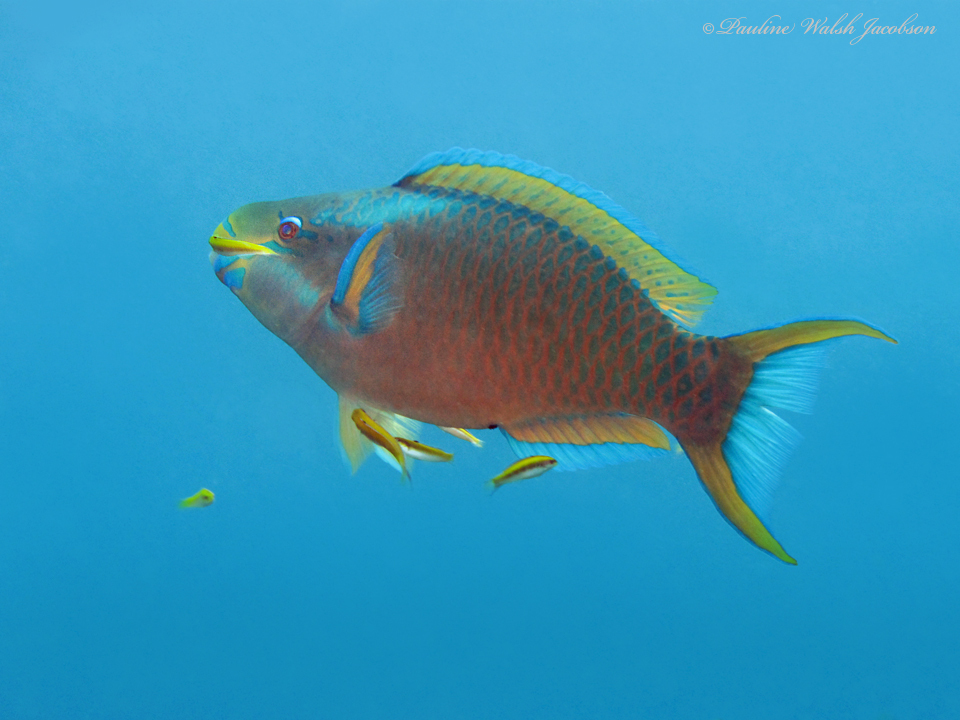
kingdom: Animalia
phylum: Chordata
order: Perciformes
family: Scaridae
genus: Scarus
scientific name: Scarus vetula
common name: Queen parrotfish
